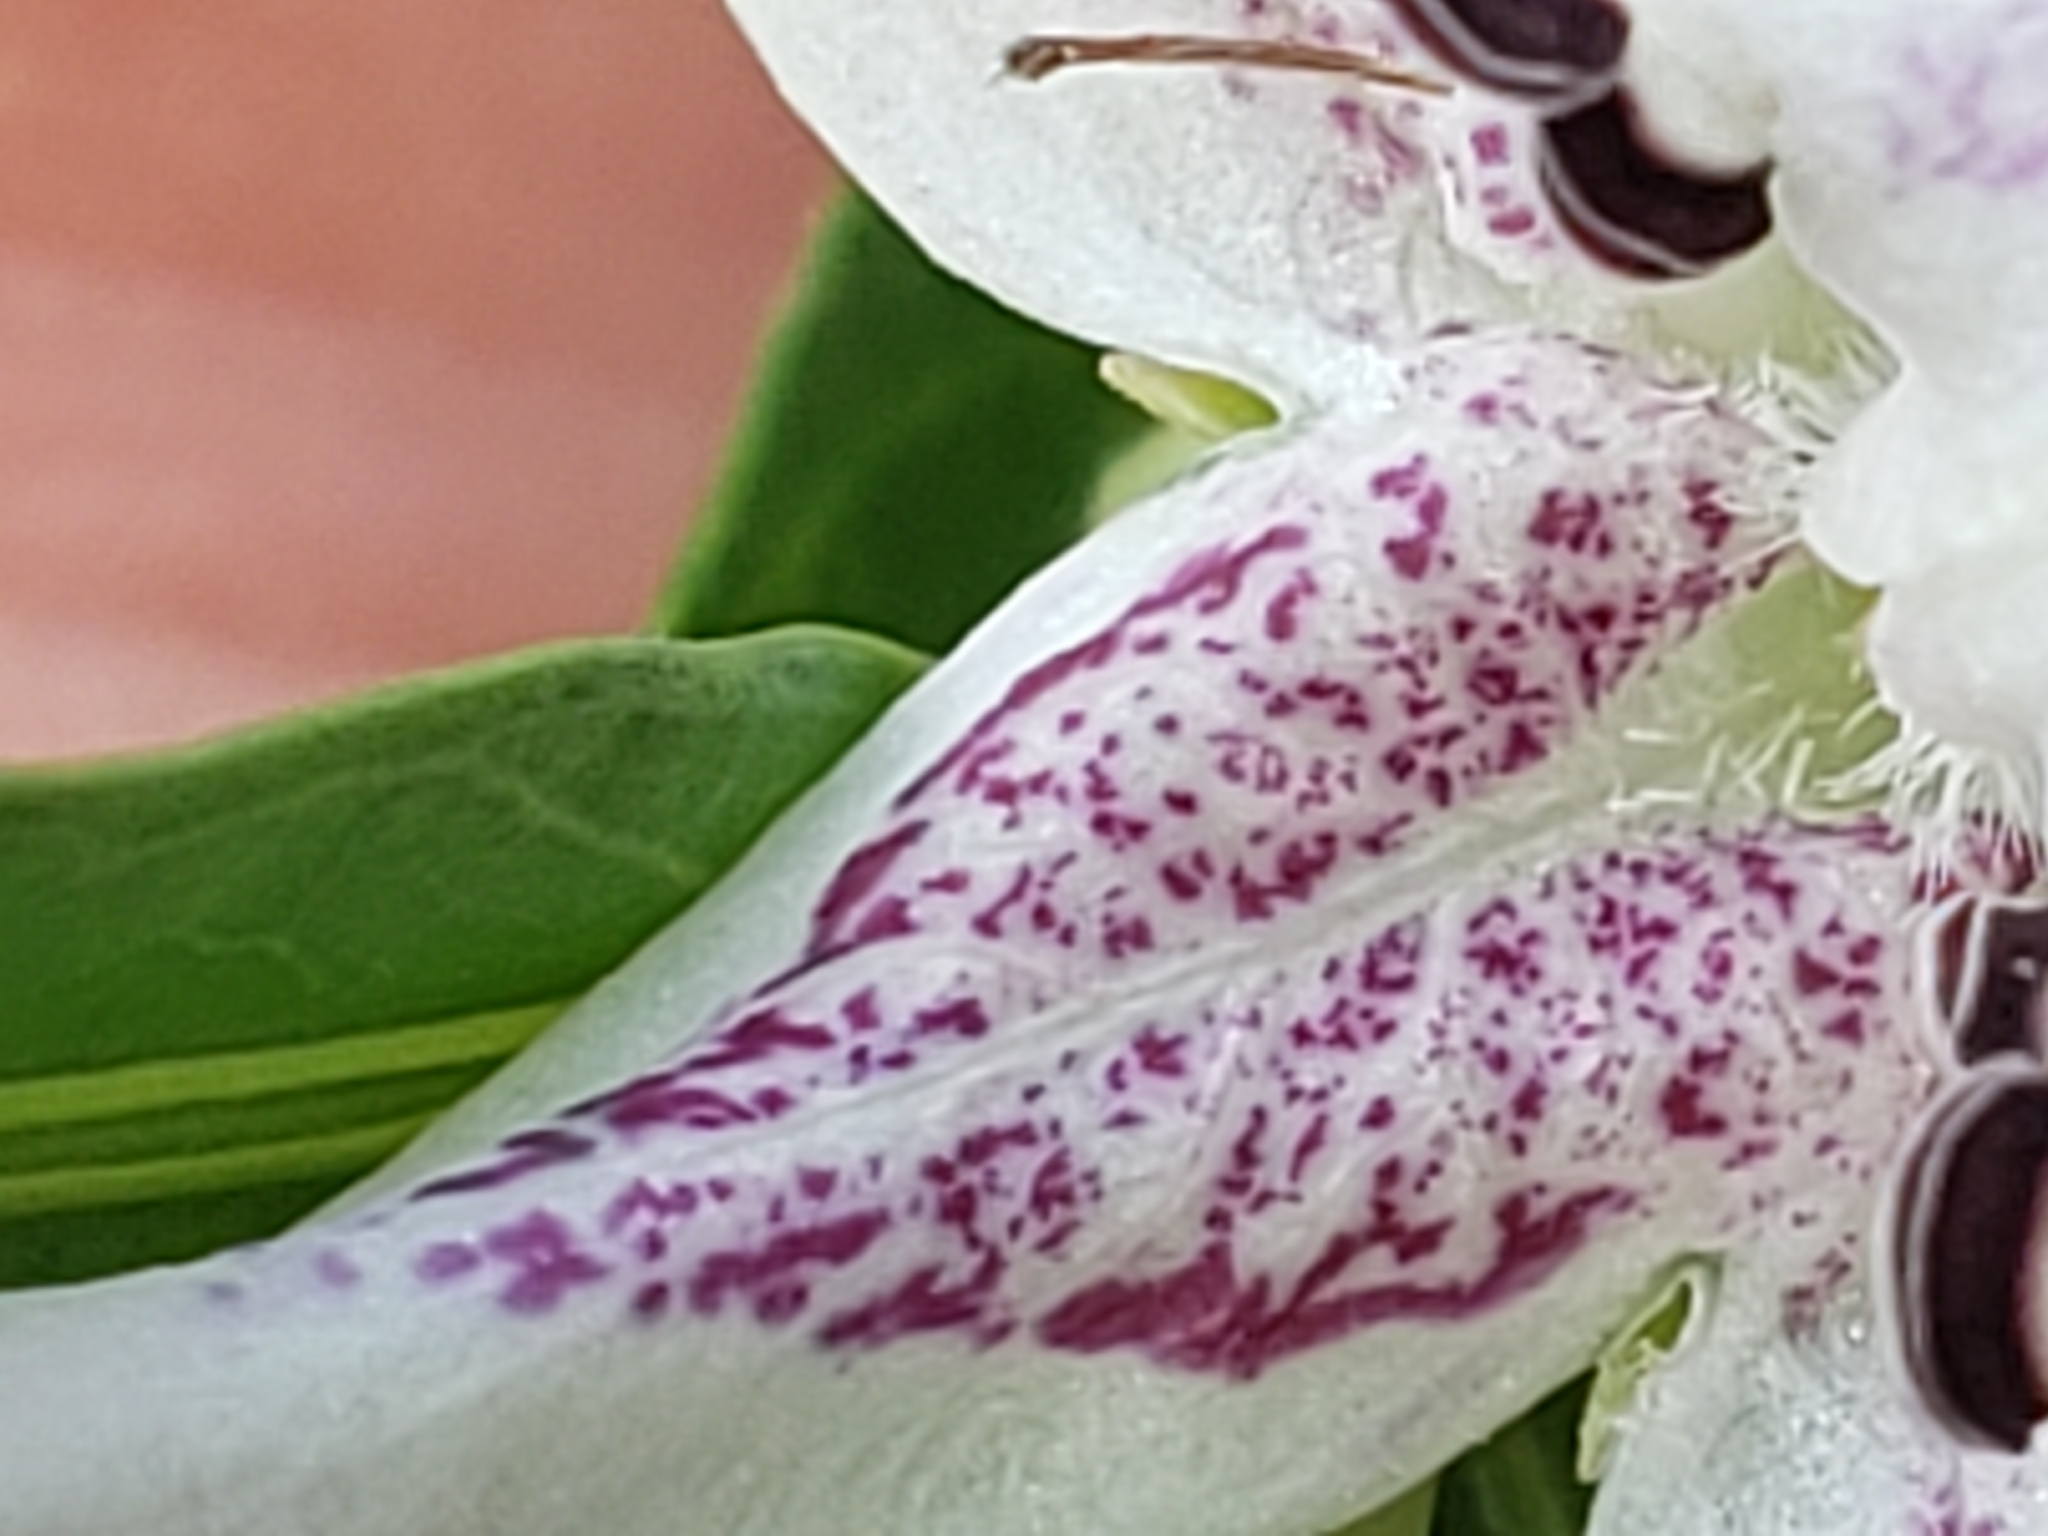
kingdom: Plantae
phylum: Tracheophyta
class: Magnoliopsida
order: Lamiales
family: Acanthaceae
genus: Dianthera
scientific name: Dianthera americana
